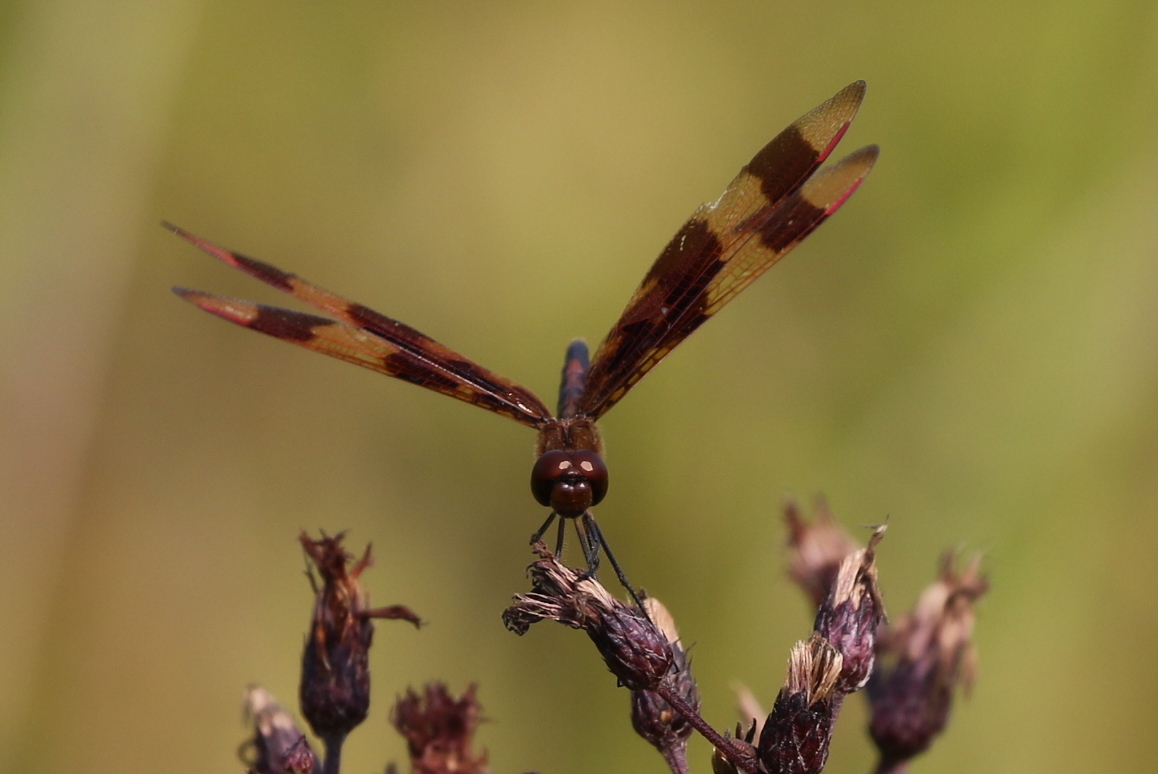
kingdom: Animalia
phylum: Arthropoda
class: Insecta
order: Odonata
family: Libellulidae
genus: Celithemis
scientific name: Celithemis eponina
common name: Halloween pennant
